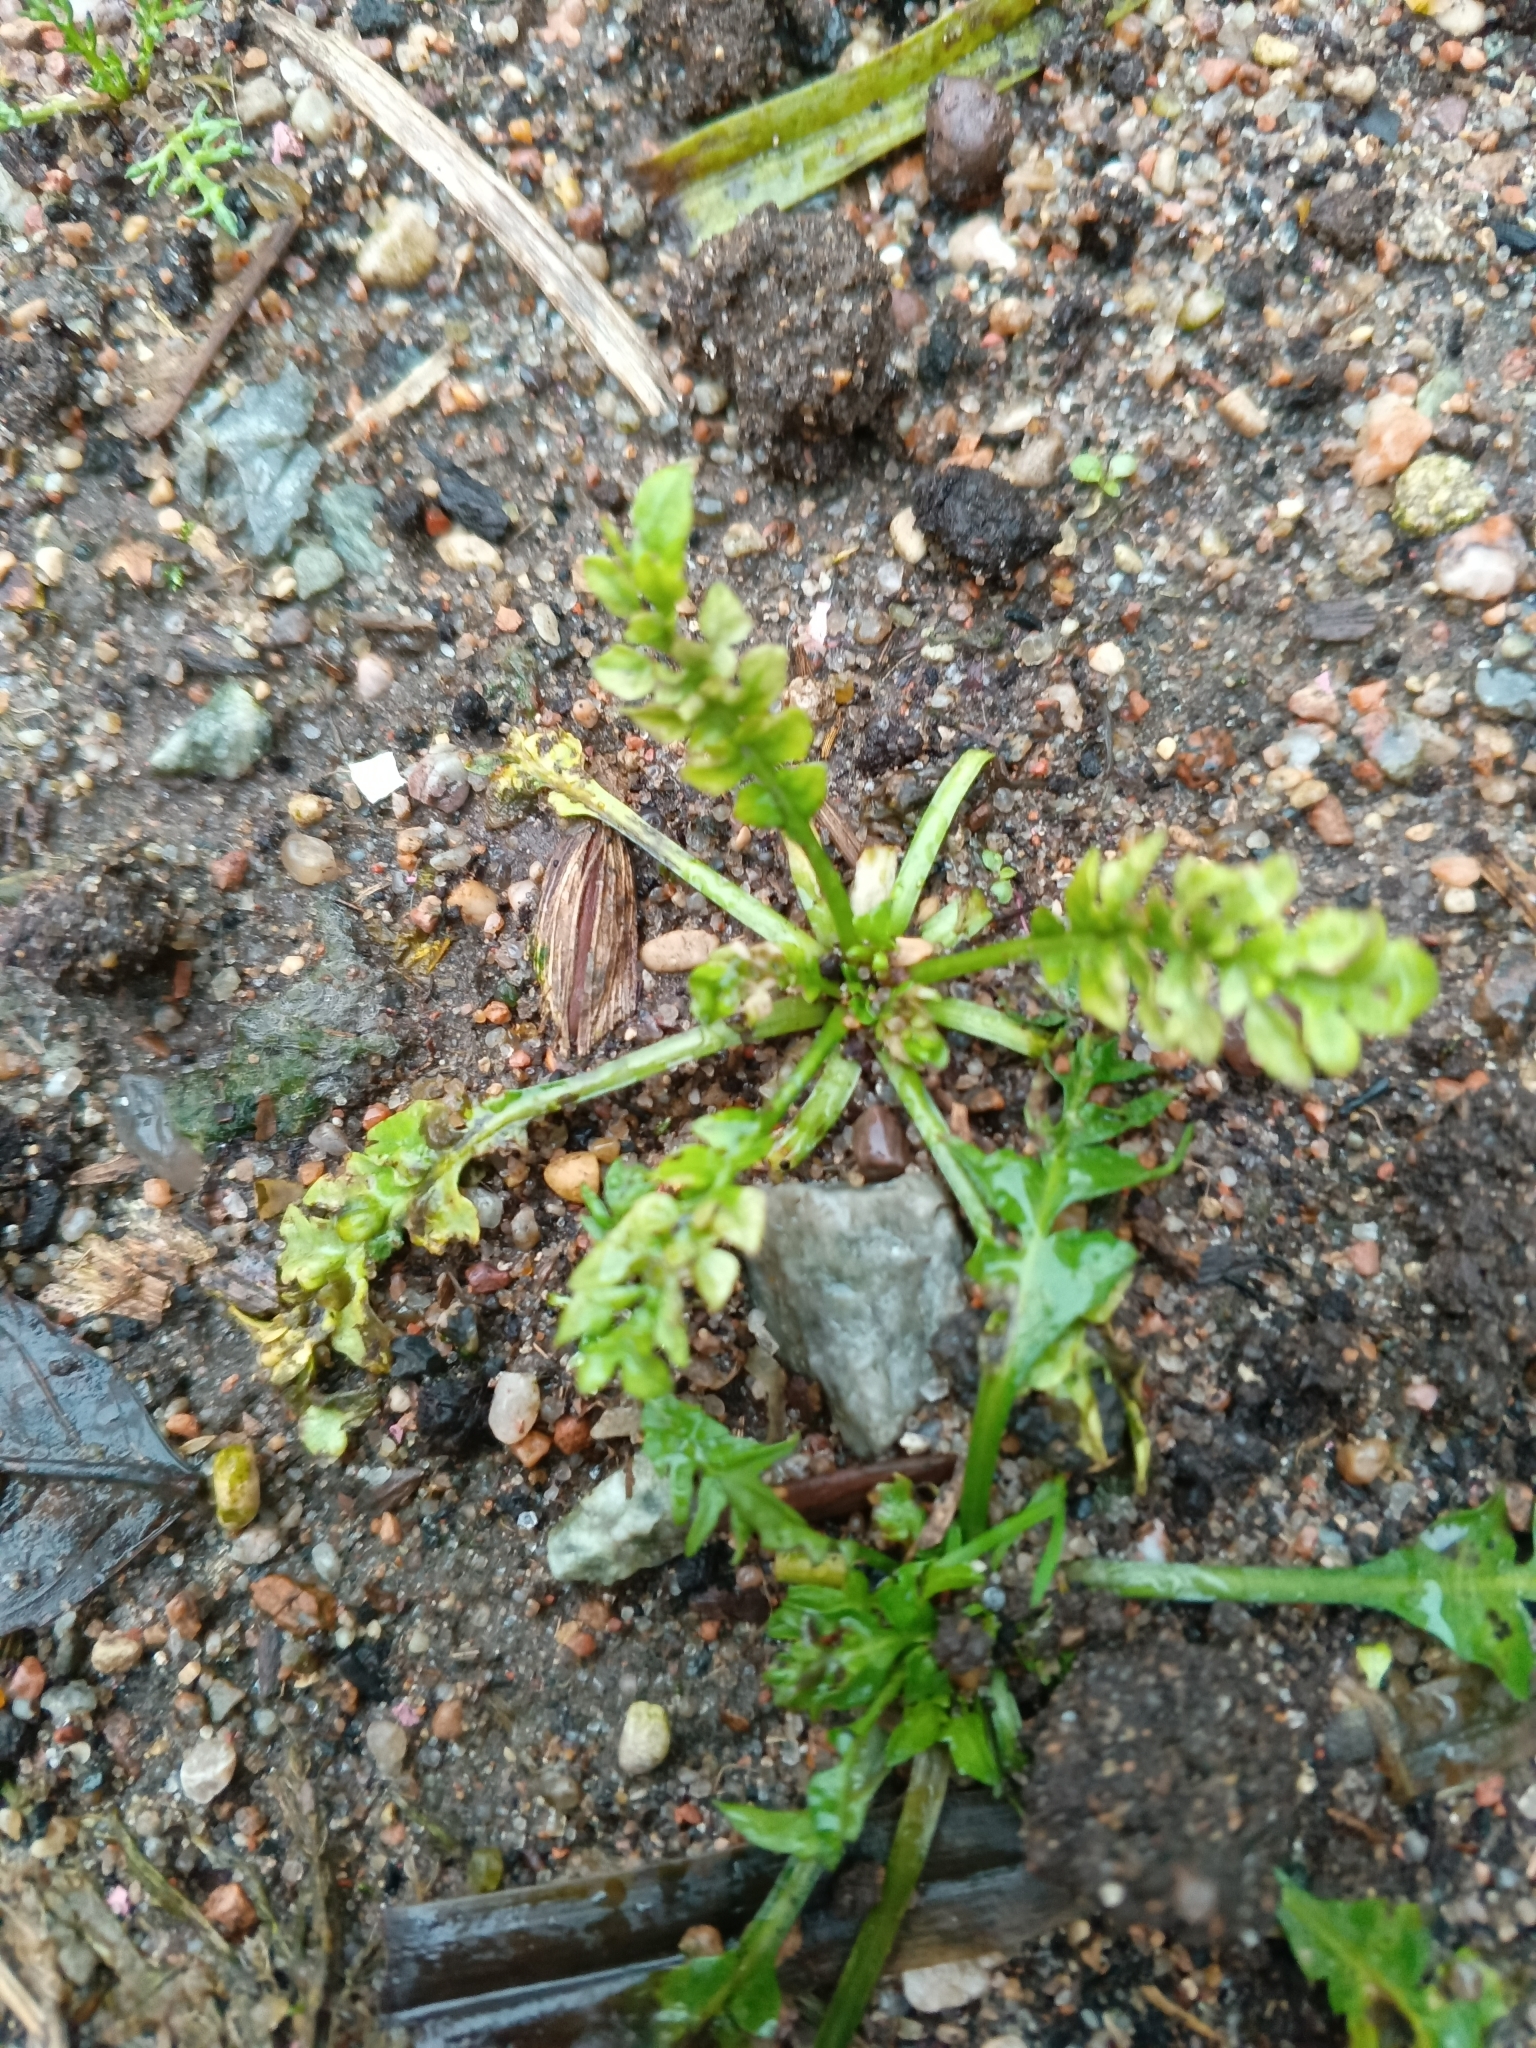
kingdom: Plantae
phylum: Tracheophyta
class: Magnoliopsida
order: Brassicales
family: Brassicaceae
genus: Capsella
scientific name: Capsella bursa-pastoris
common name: Shepherd's purse
